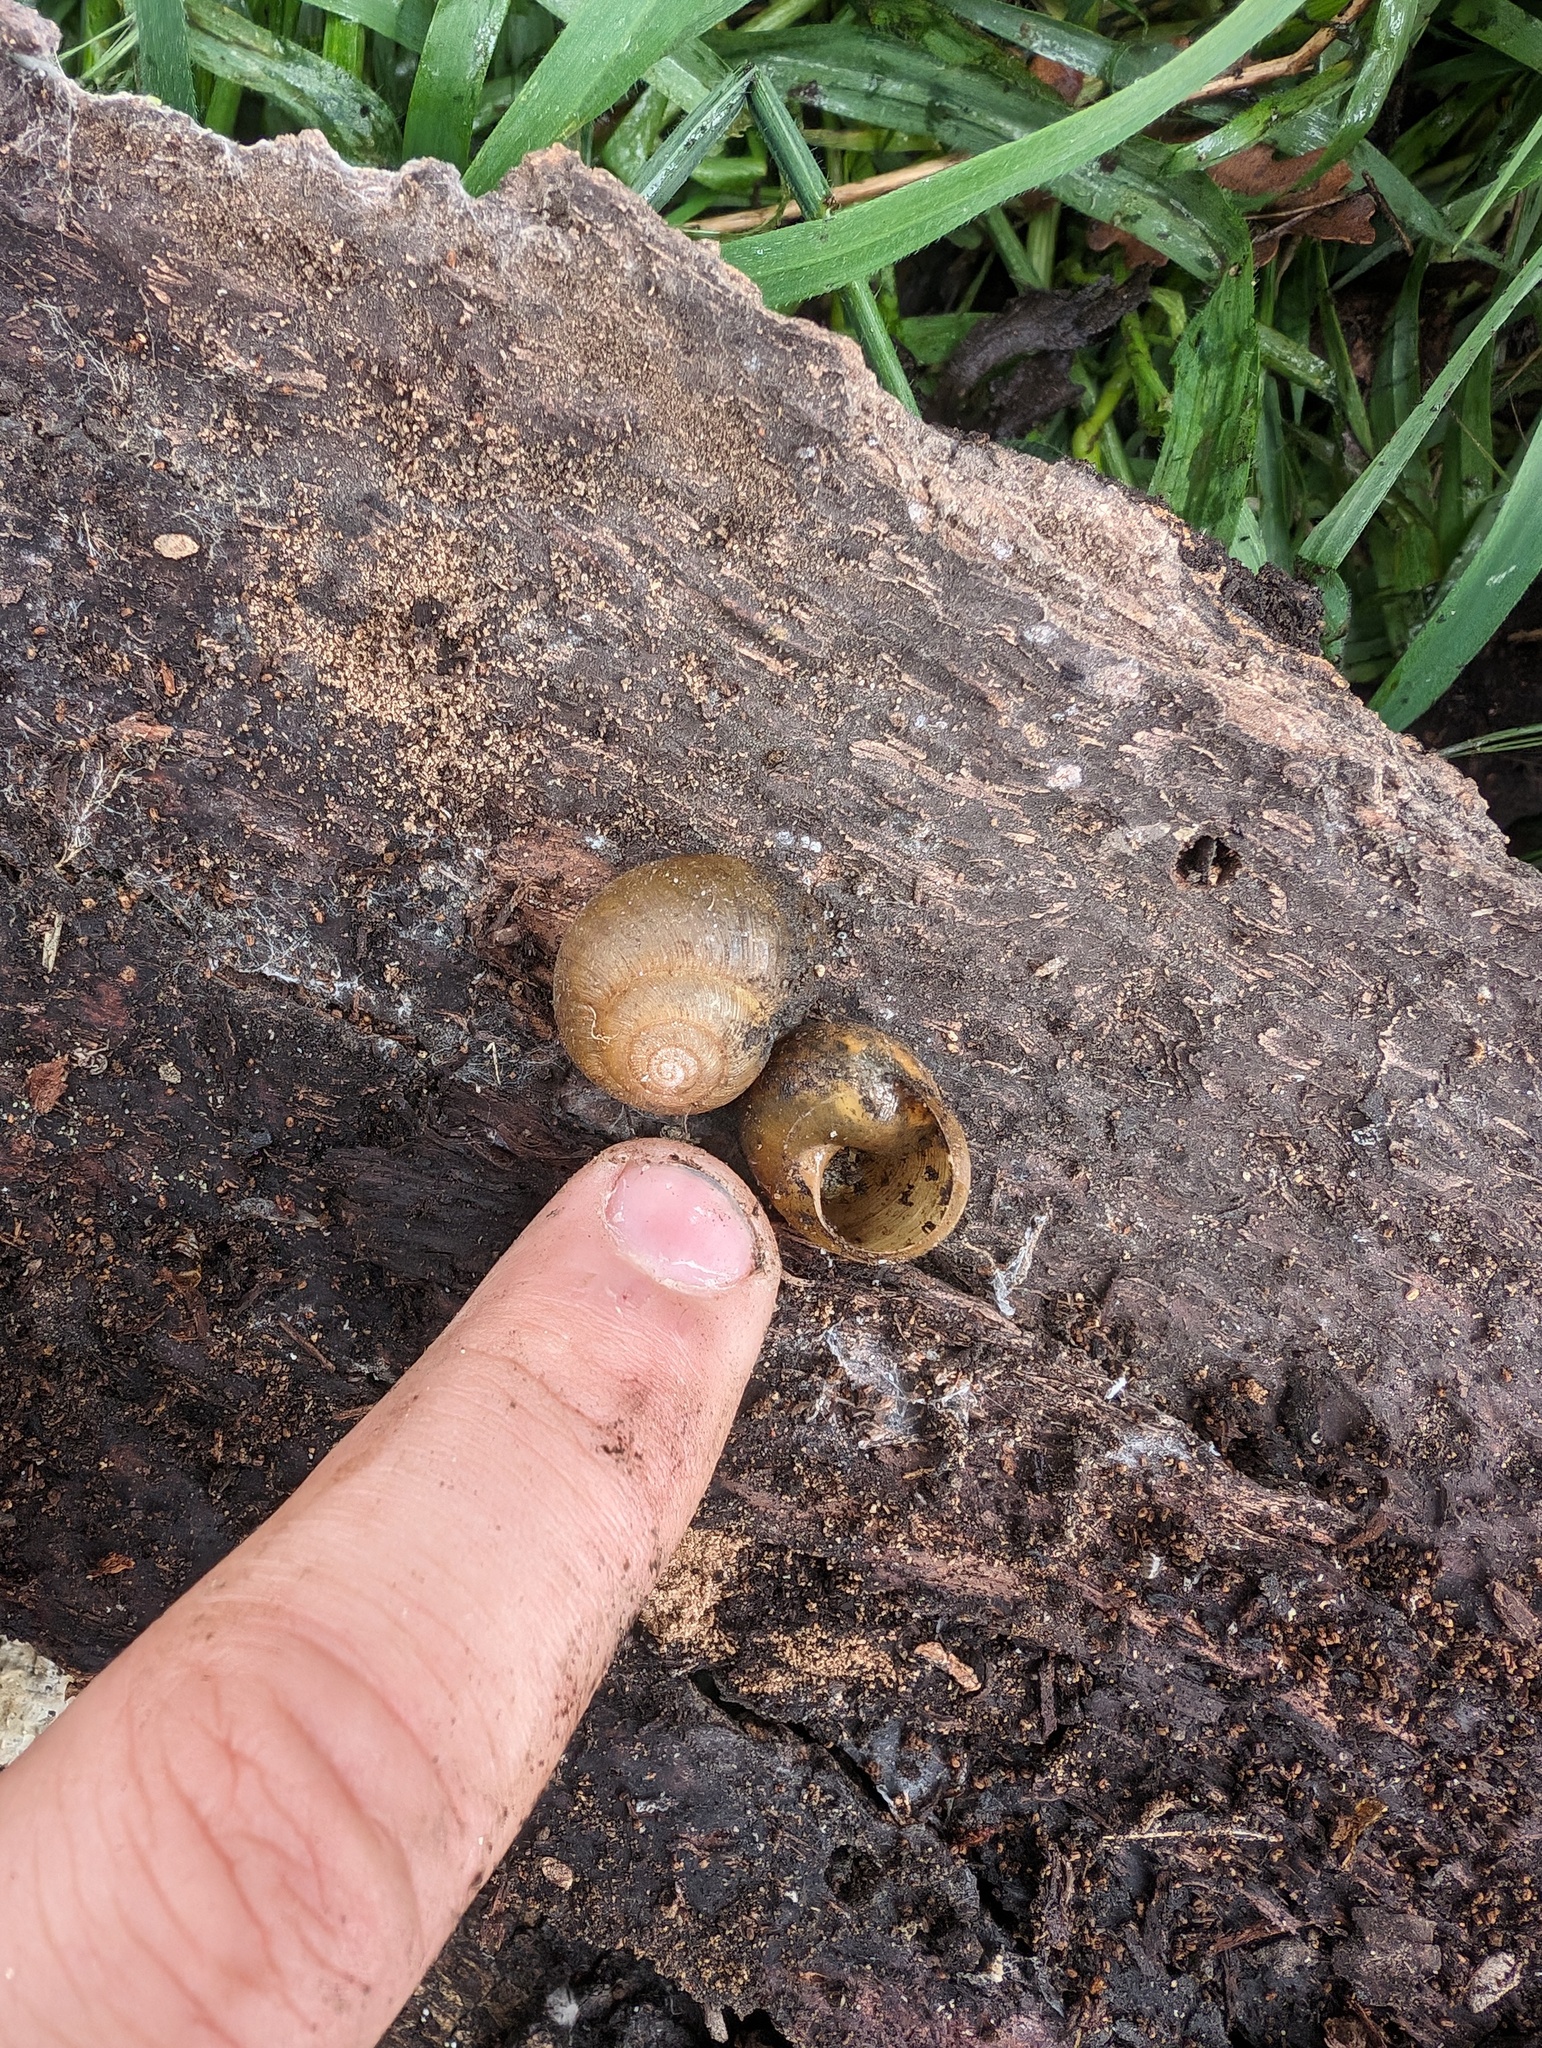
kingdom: Animalia
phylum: Mollusca
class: Gastropoda
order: Stylommatophora
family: Xanthonychidae
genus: Helminthoglypta
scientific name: Helminthoglypta berryi
